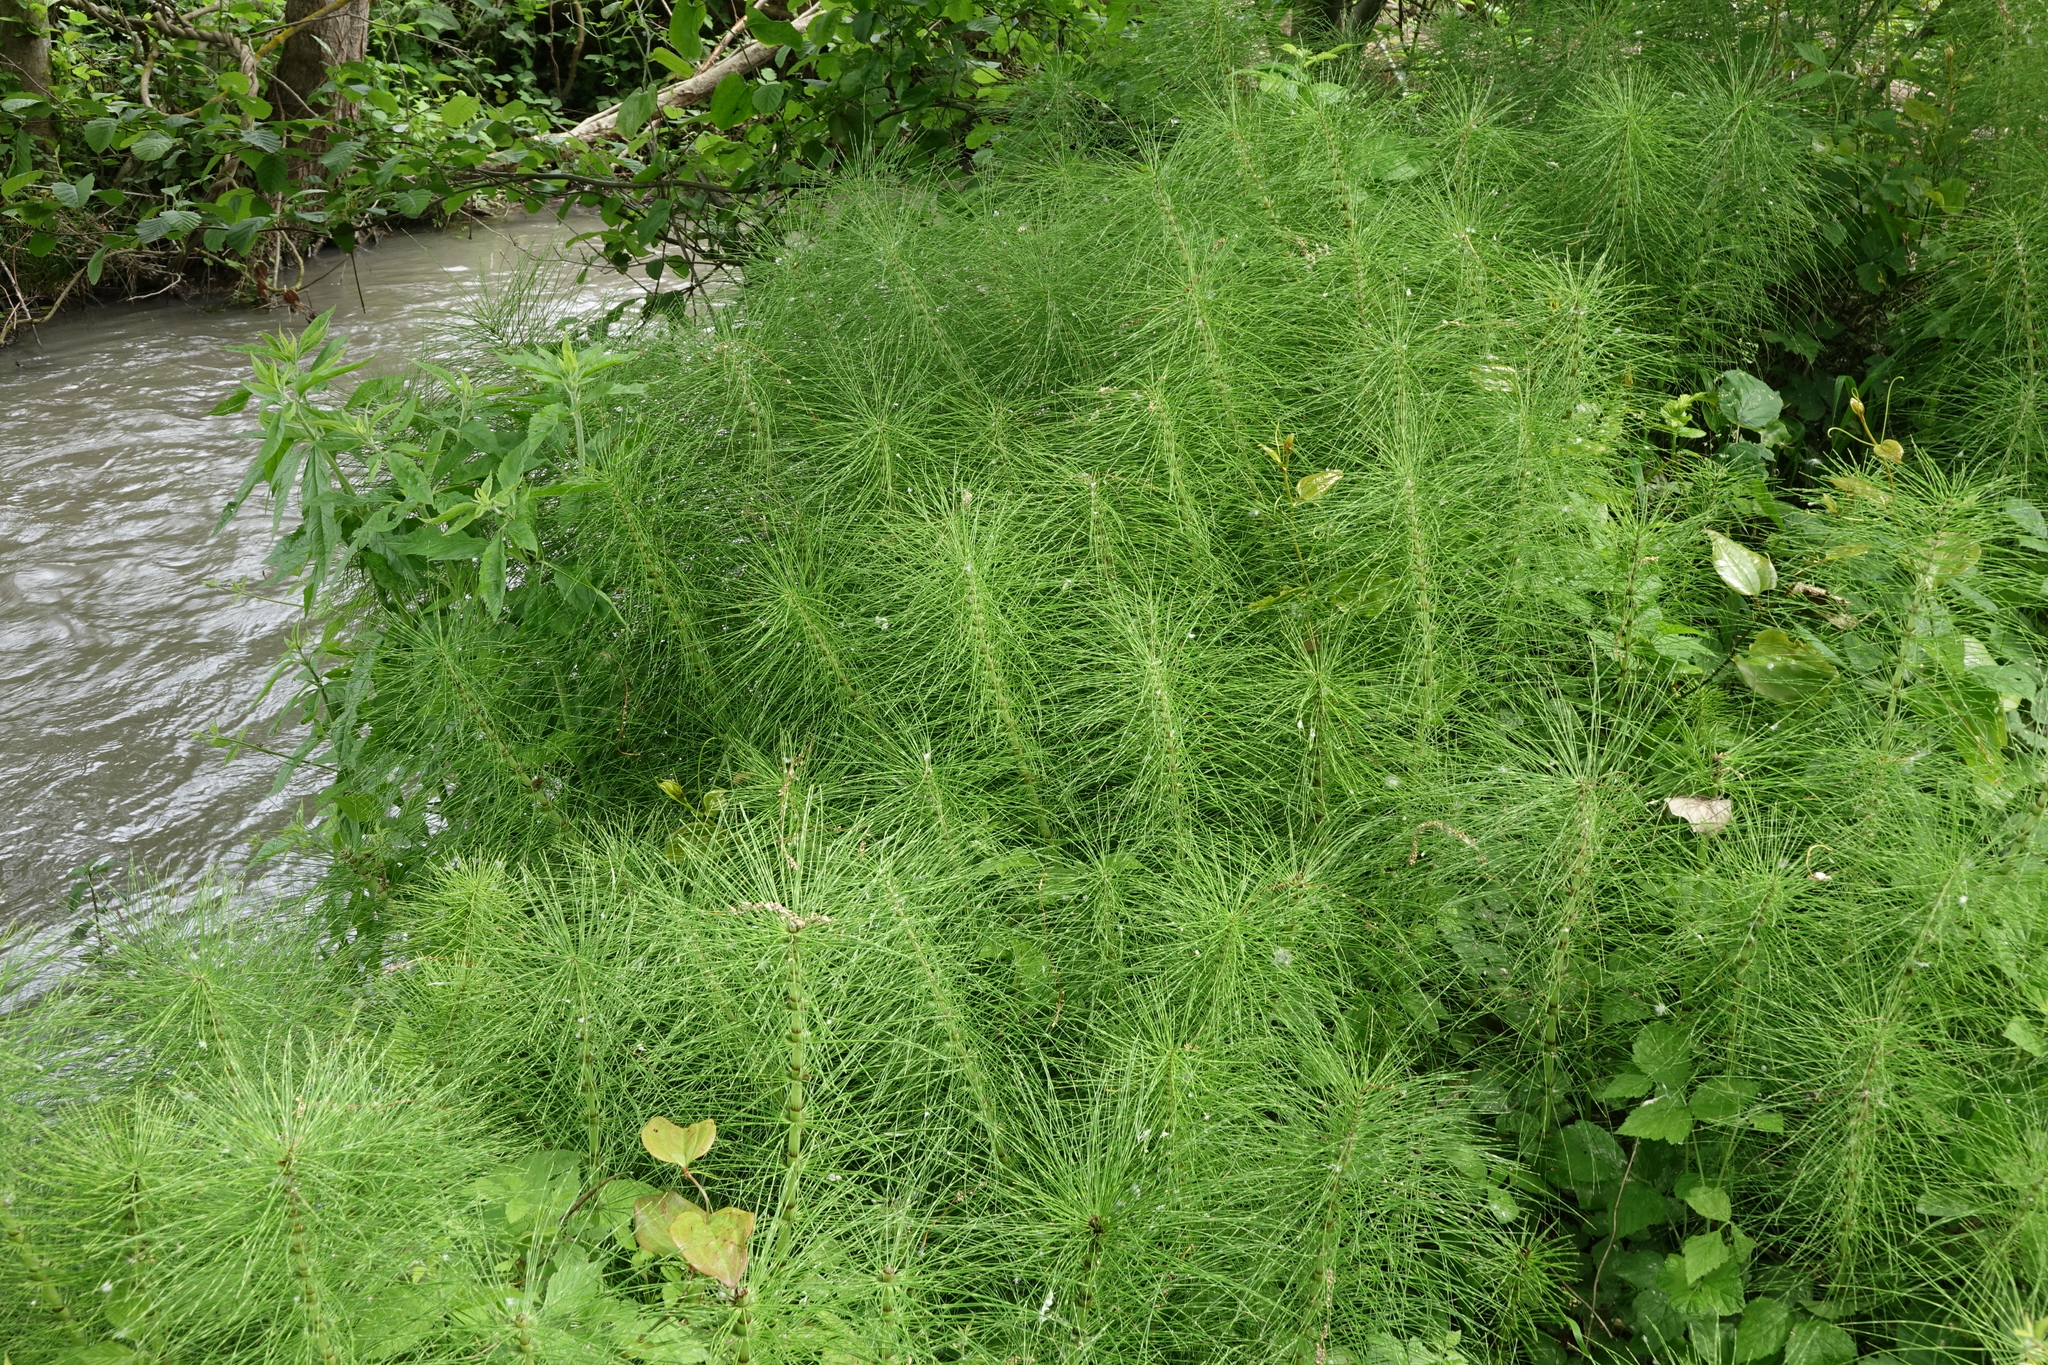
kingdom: Plantae
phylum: Tracheophyta
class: Polypodiopsida
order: Equisetales
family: Equisetaceae
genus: Equisetum
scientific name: Equisetum telmateia
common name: Great horsetail
